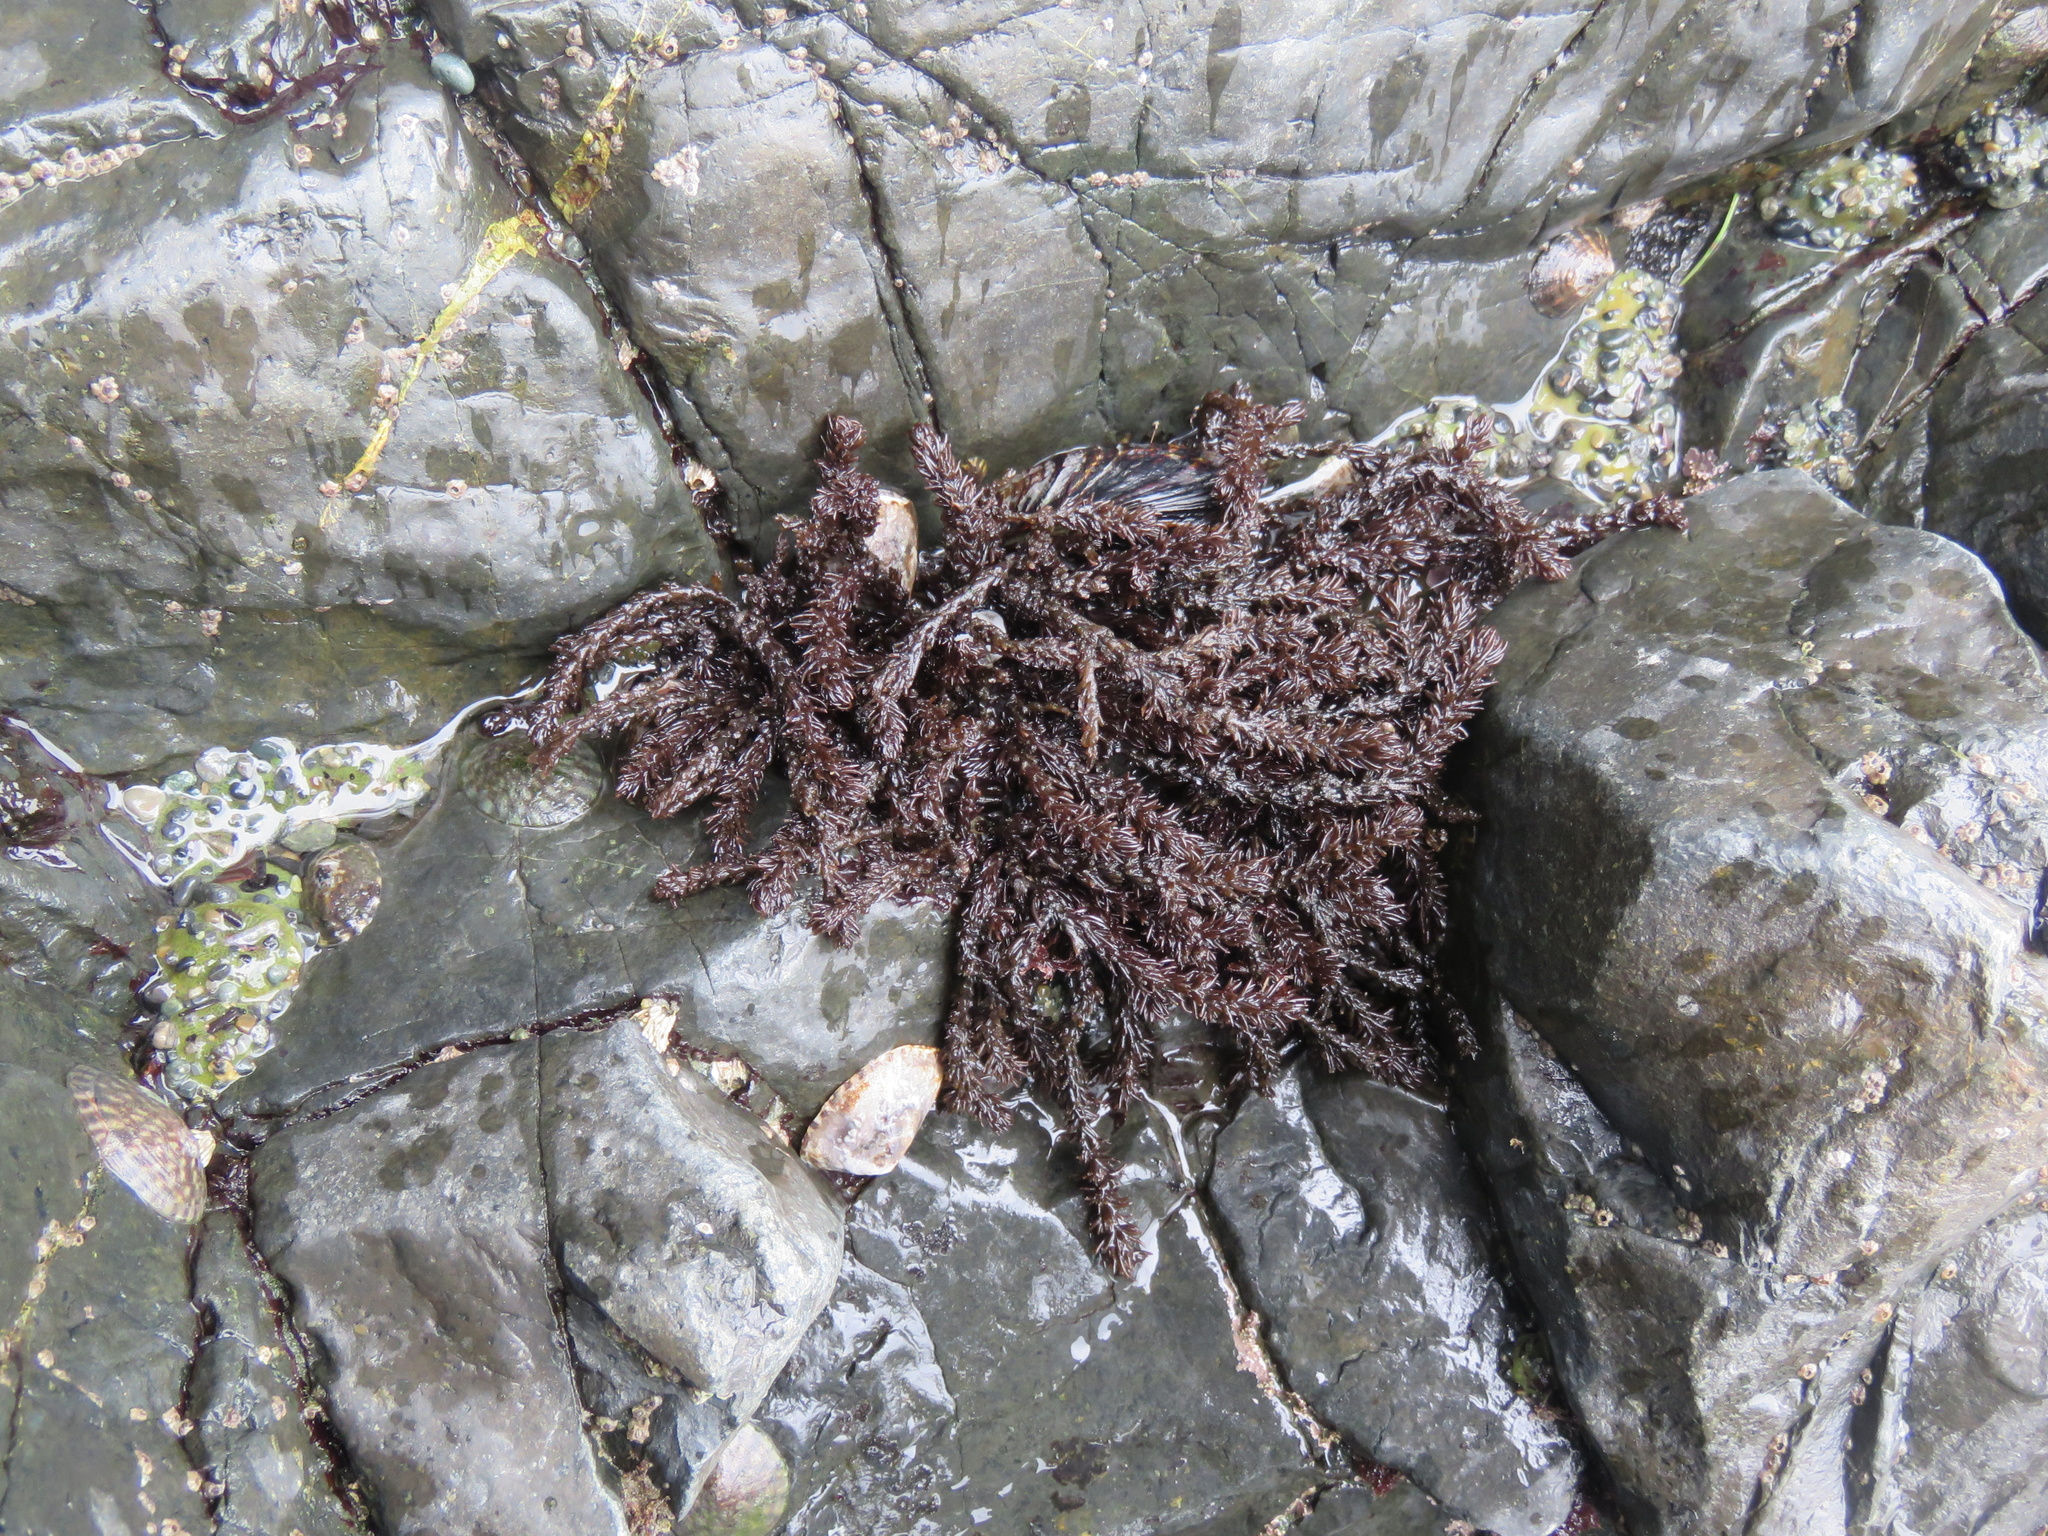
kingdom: Plantae
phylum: Rhodophyta
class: Florideophyceae
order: Ceramiales
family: Rhodomelaceae
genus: Neorhodomela
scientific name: Neorhodomela larix
